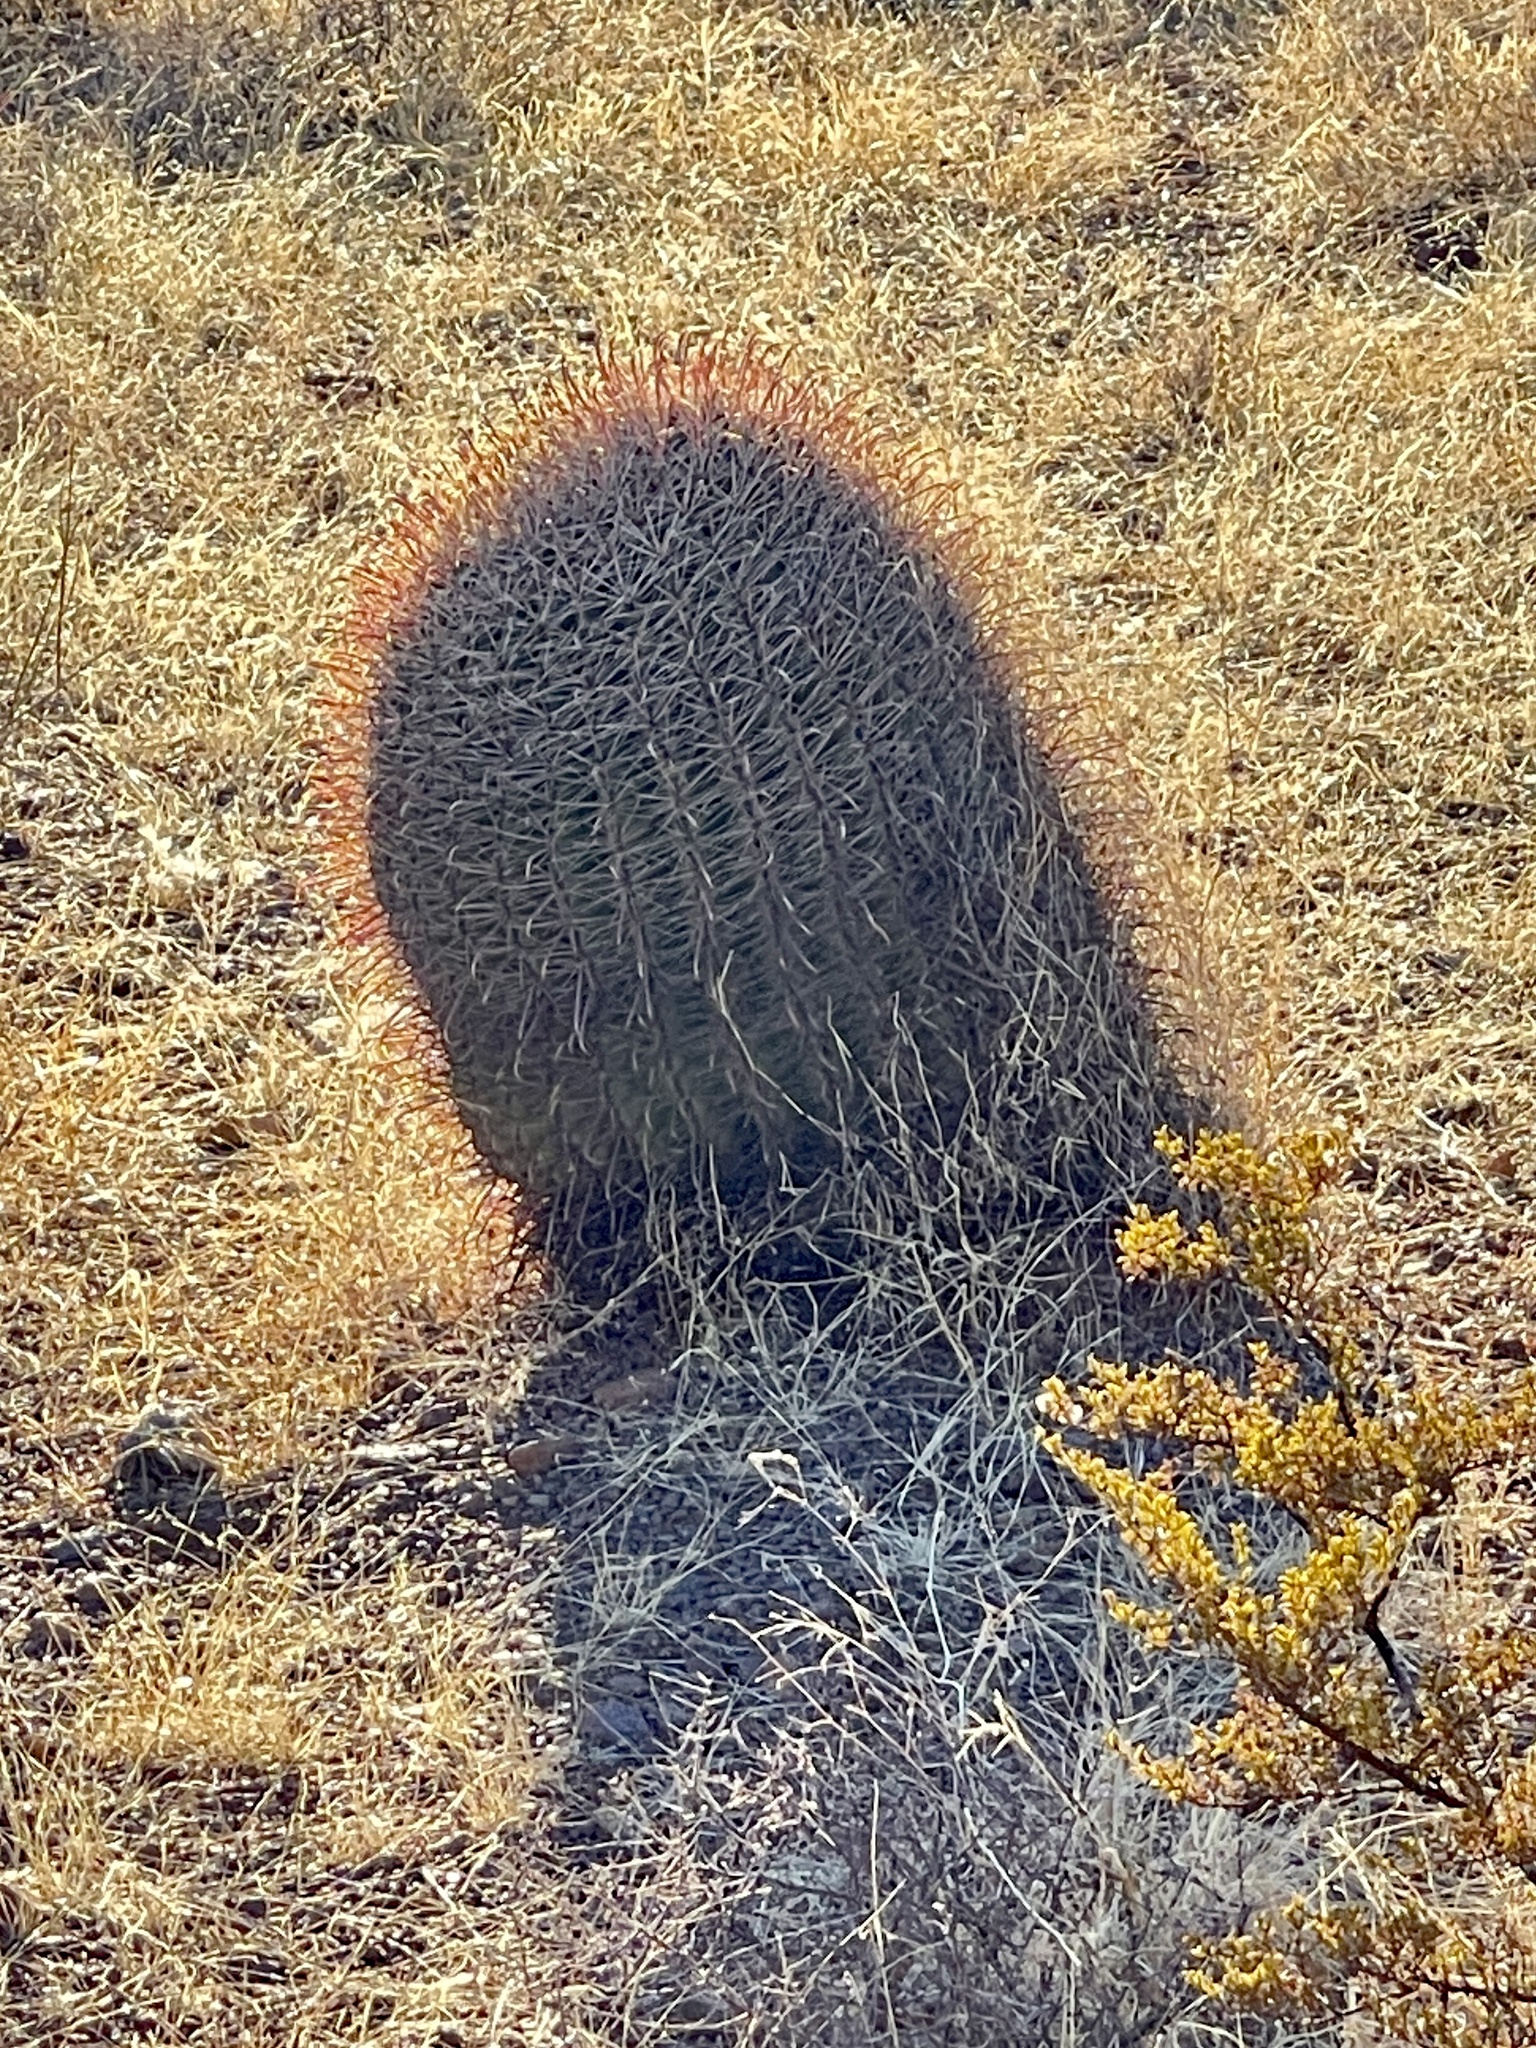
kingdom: Plantae
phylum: Tracheophyta
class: Magnoliopsida
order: Caryophyllales
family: Cactaceae
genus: Ferocactus
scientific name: Ferocactus wislizeni
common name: Candy barrel cactus
